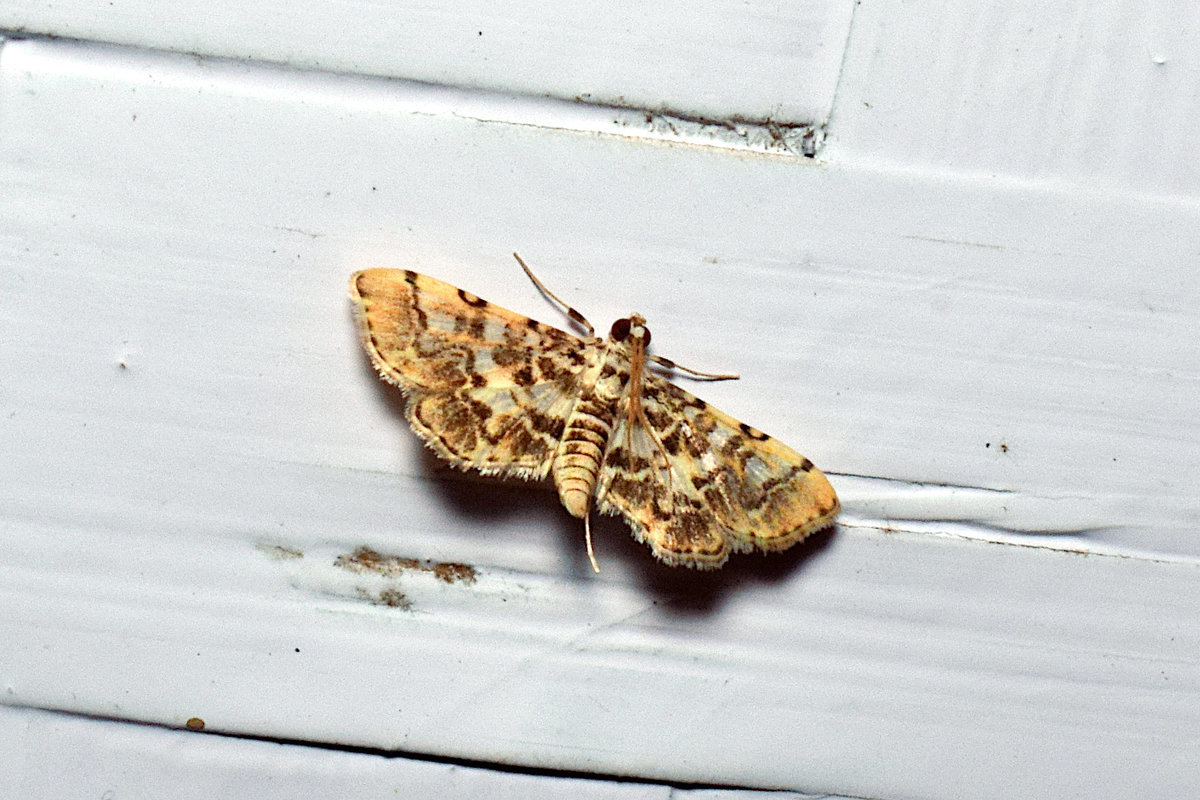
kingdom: Animalia
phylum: Arthropoda
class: Insecta
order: Lepidoptera
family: Crambidae
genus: Lamprosema
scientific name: Lamprosema commixta
